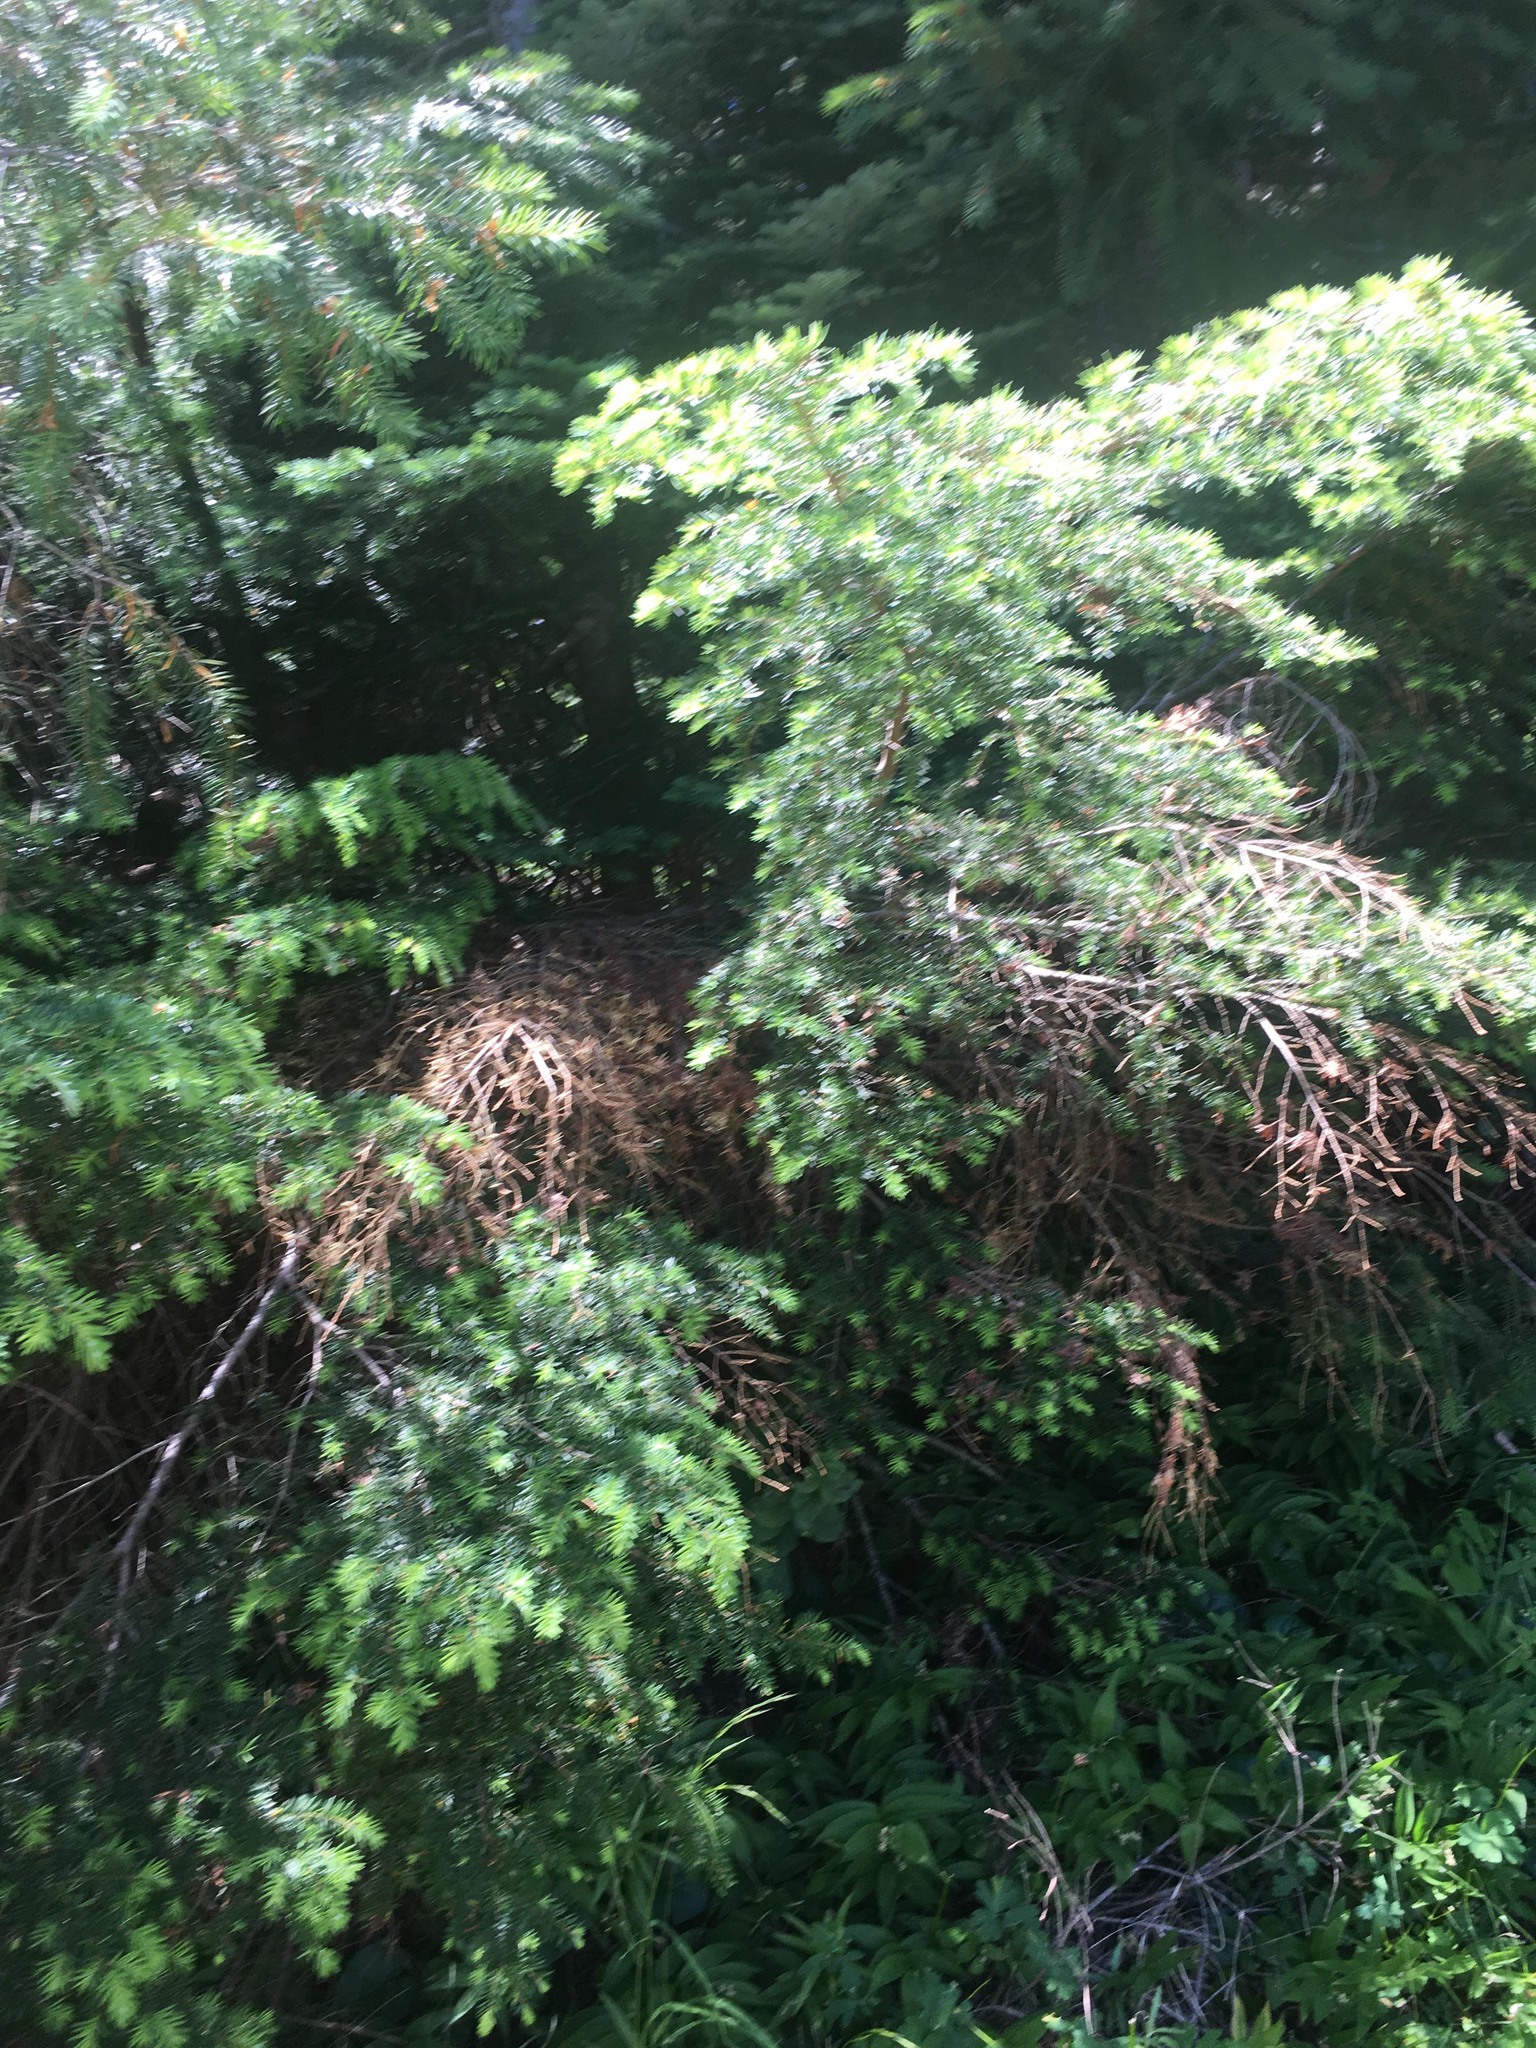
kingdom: Plantae
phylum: Tracheophyta
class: Pinopsida
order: Pinales
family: Pinaceae
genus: Tsuga
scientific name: Tsuga heterophylla
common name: Western hemlock
